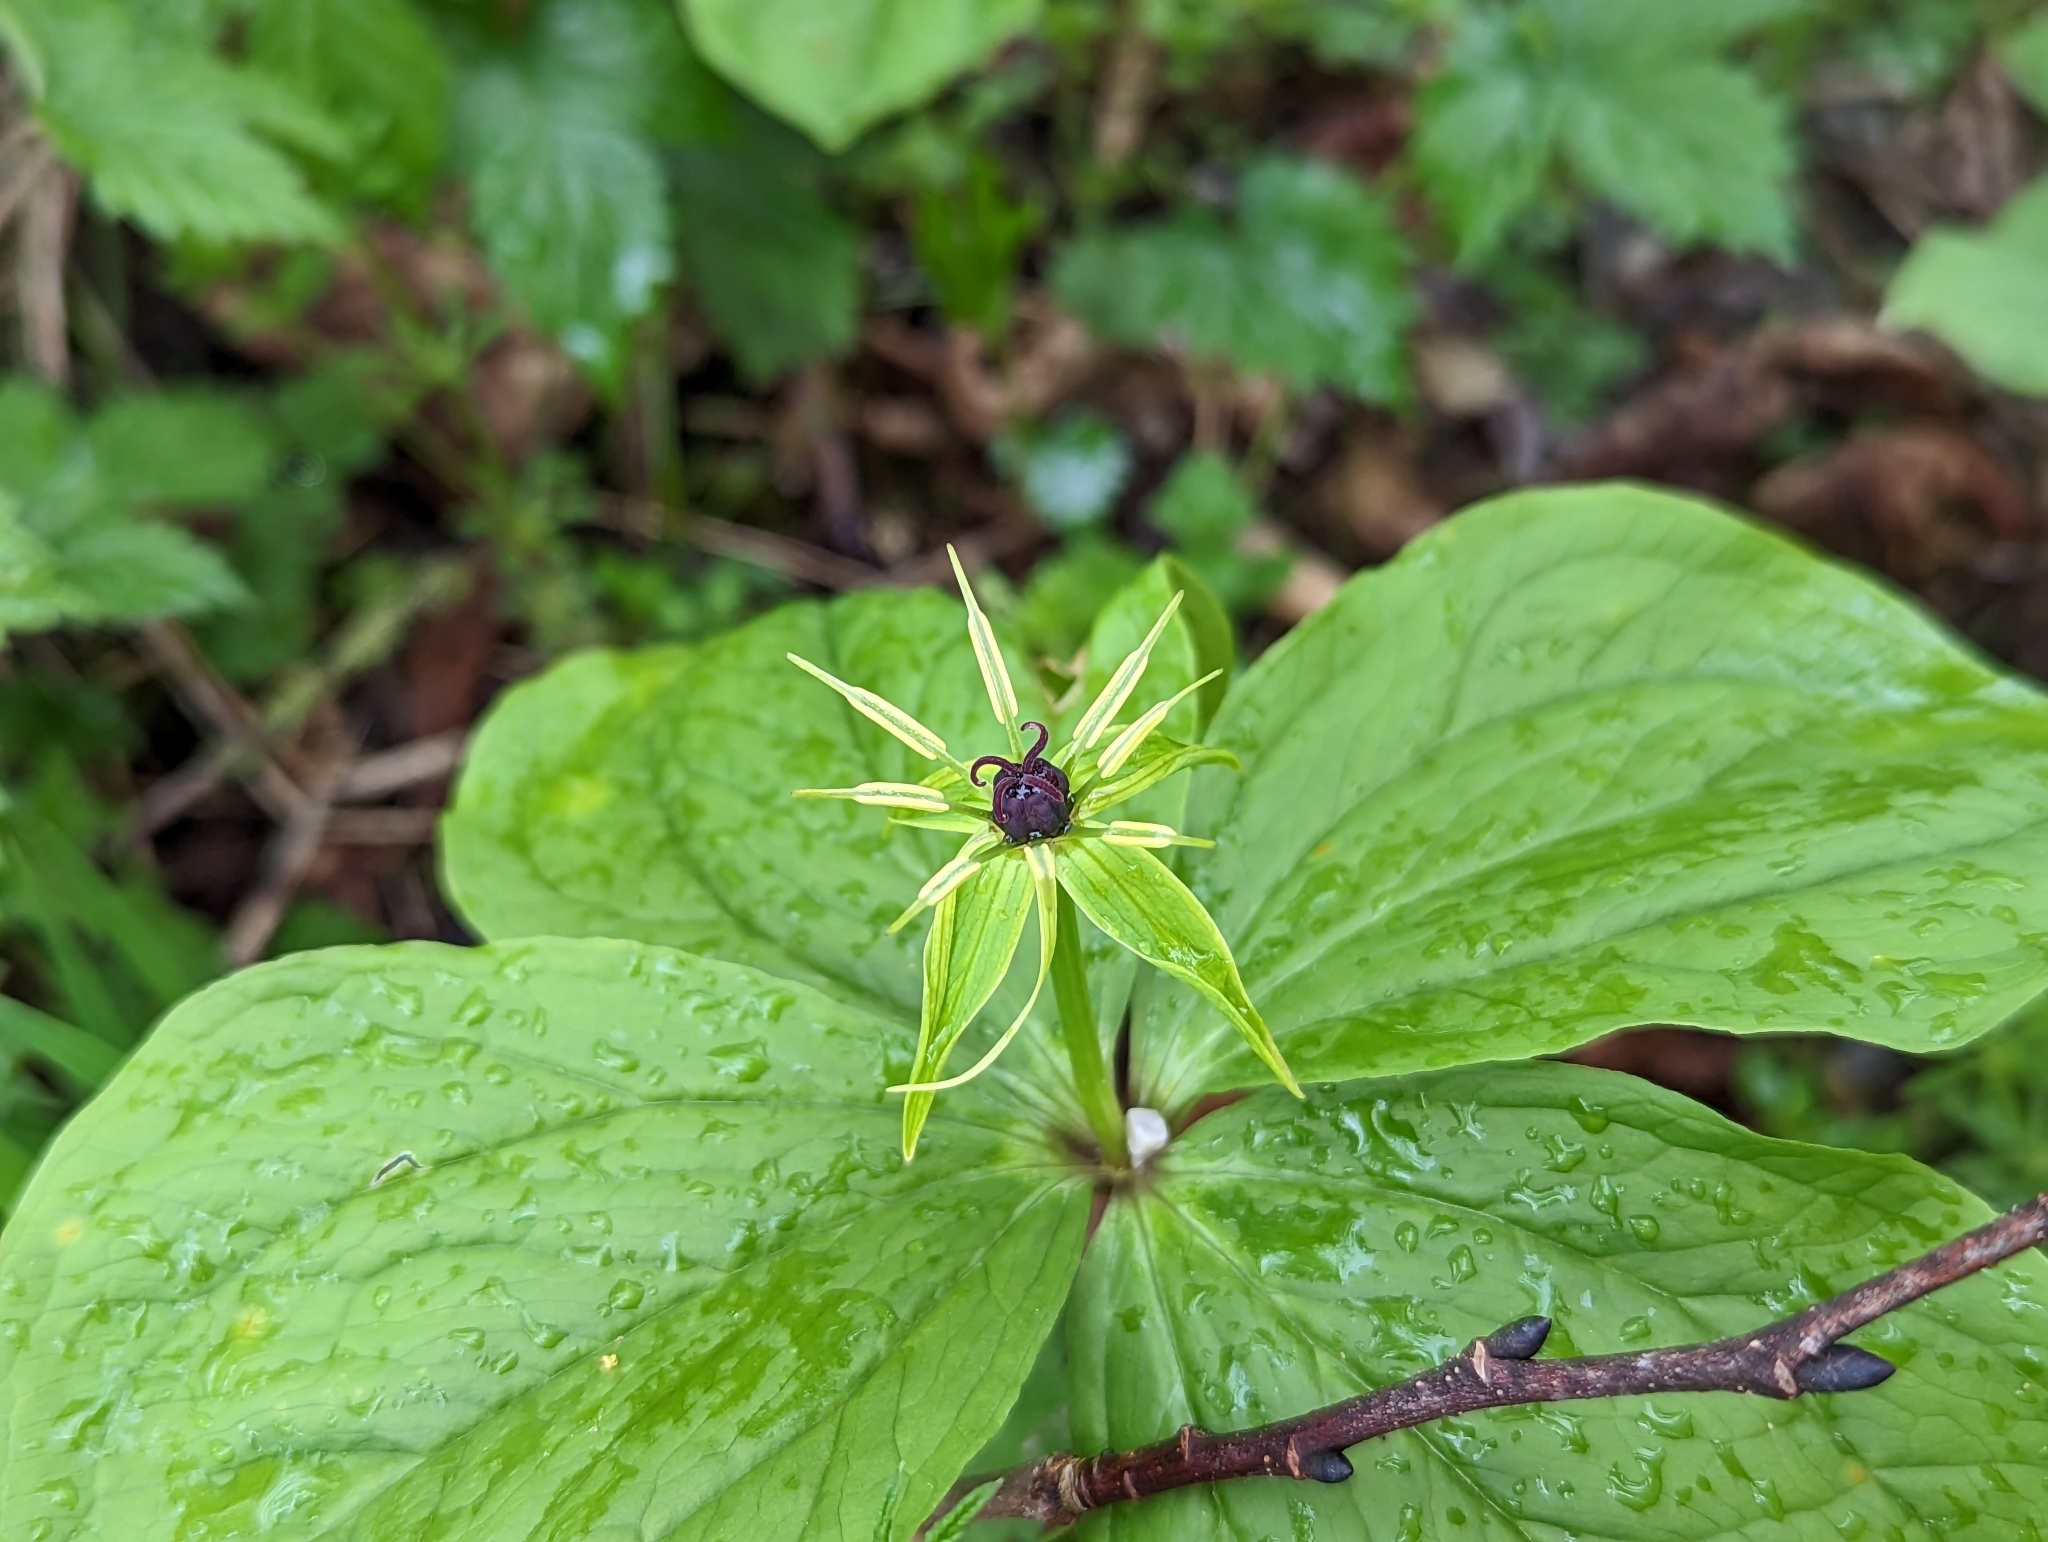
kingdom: Plantae
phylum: Tracheophyta
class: Liliopsida
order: Liliales
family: Melanthiaceae
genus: Paris
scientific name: Paris quadrifolia
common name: Herb-paris
